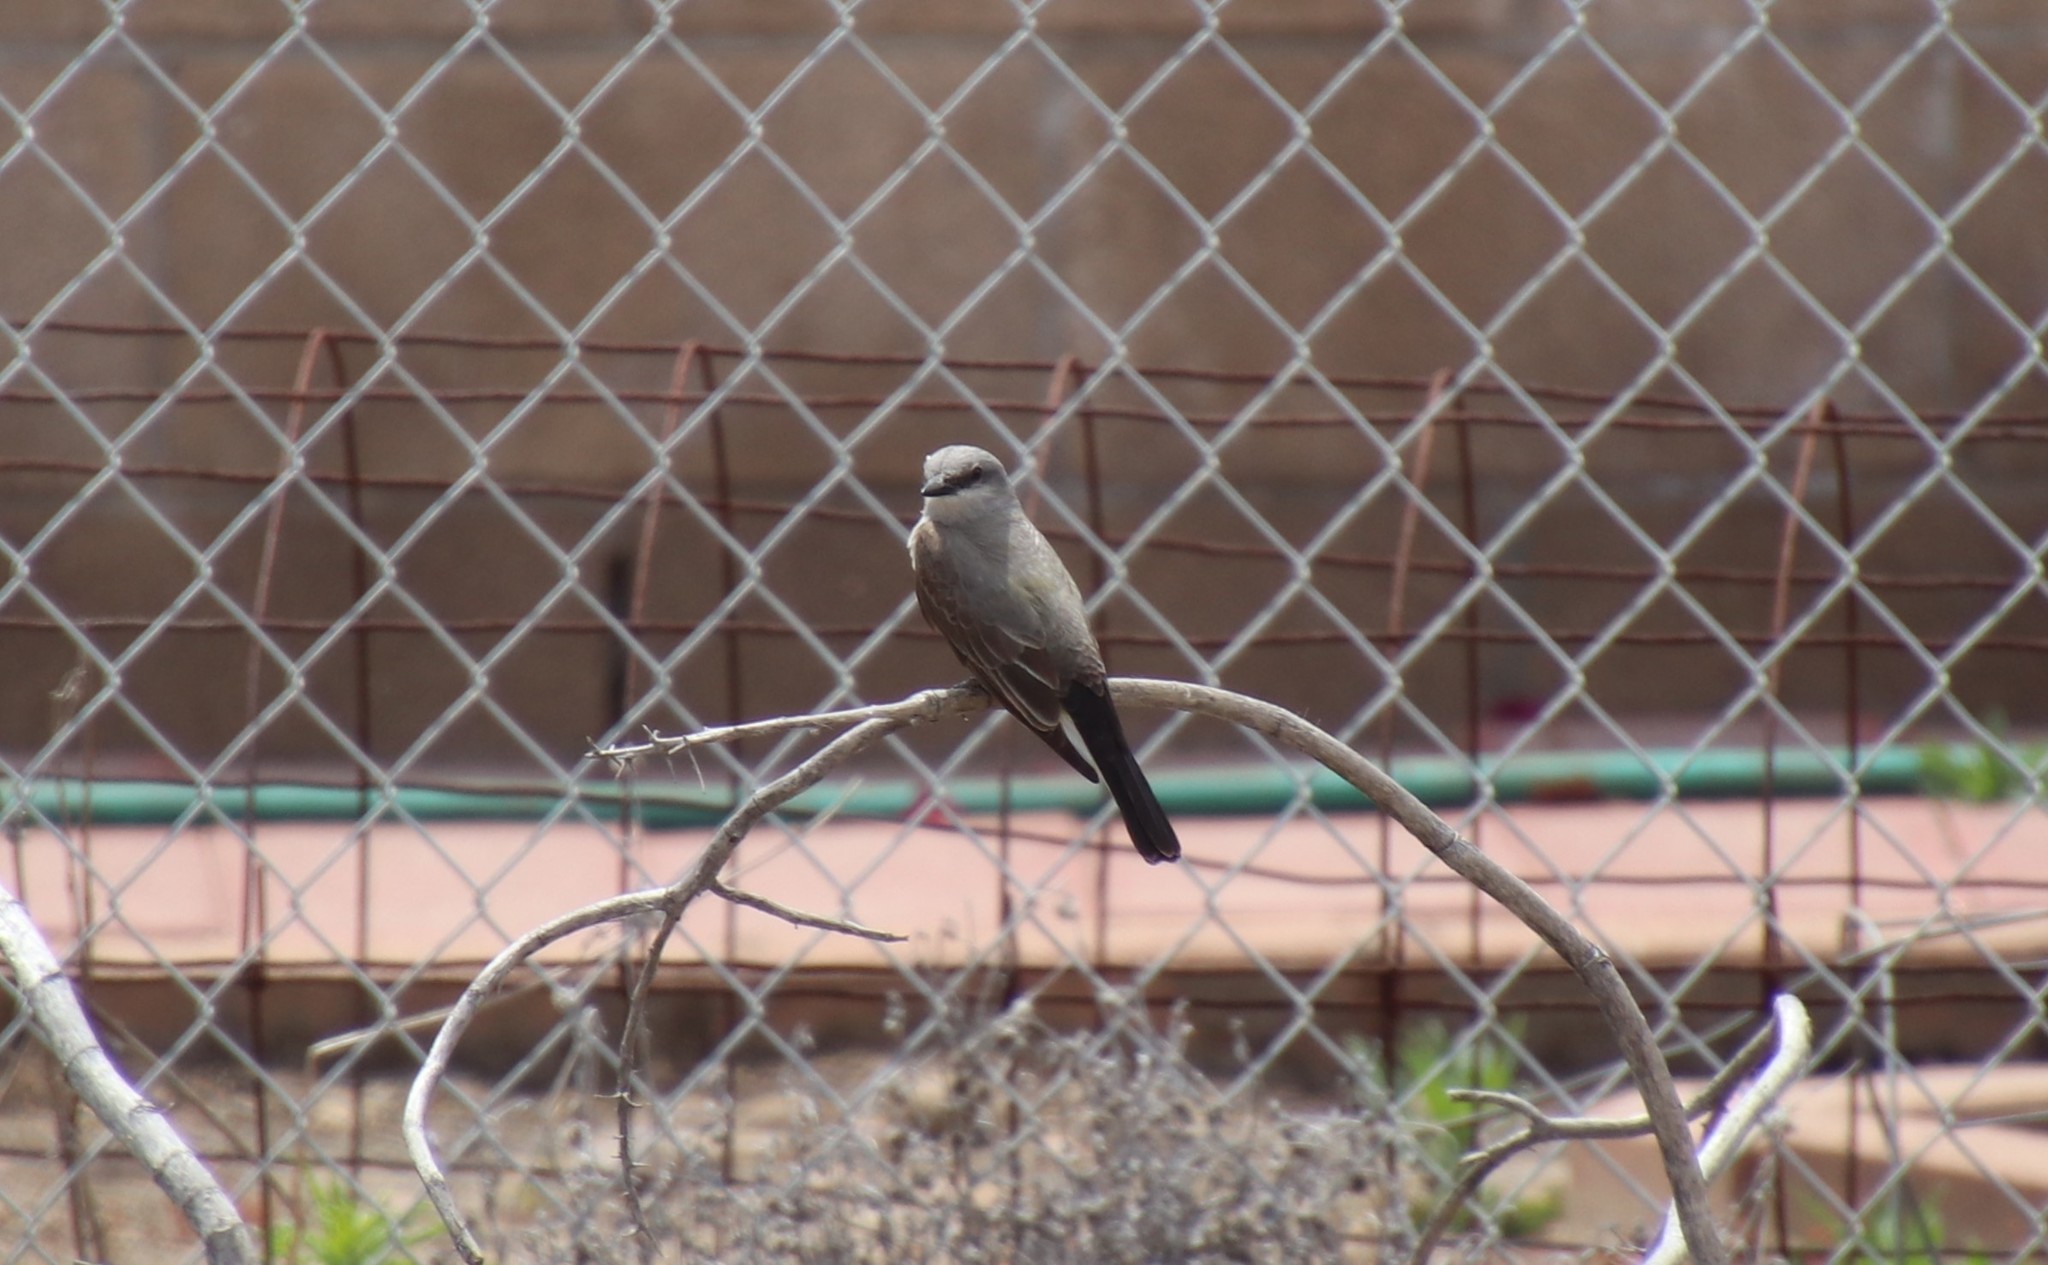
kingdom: Animalia
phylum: Chordata
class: Aves
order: Passeriformes
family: Tyrannidae
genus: Tyrannus
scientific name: Tyrannus verticalis
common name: Western kingbird
